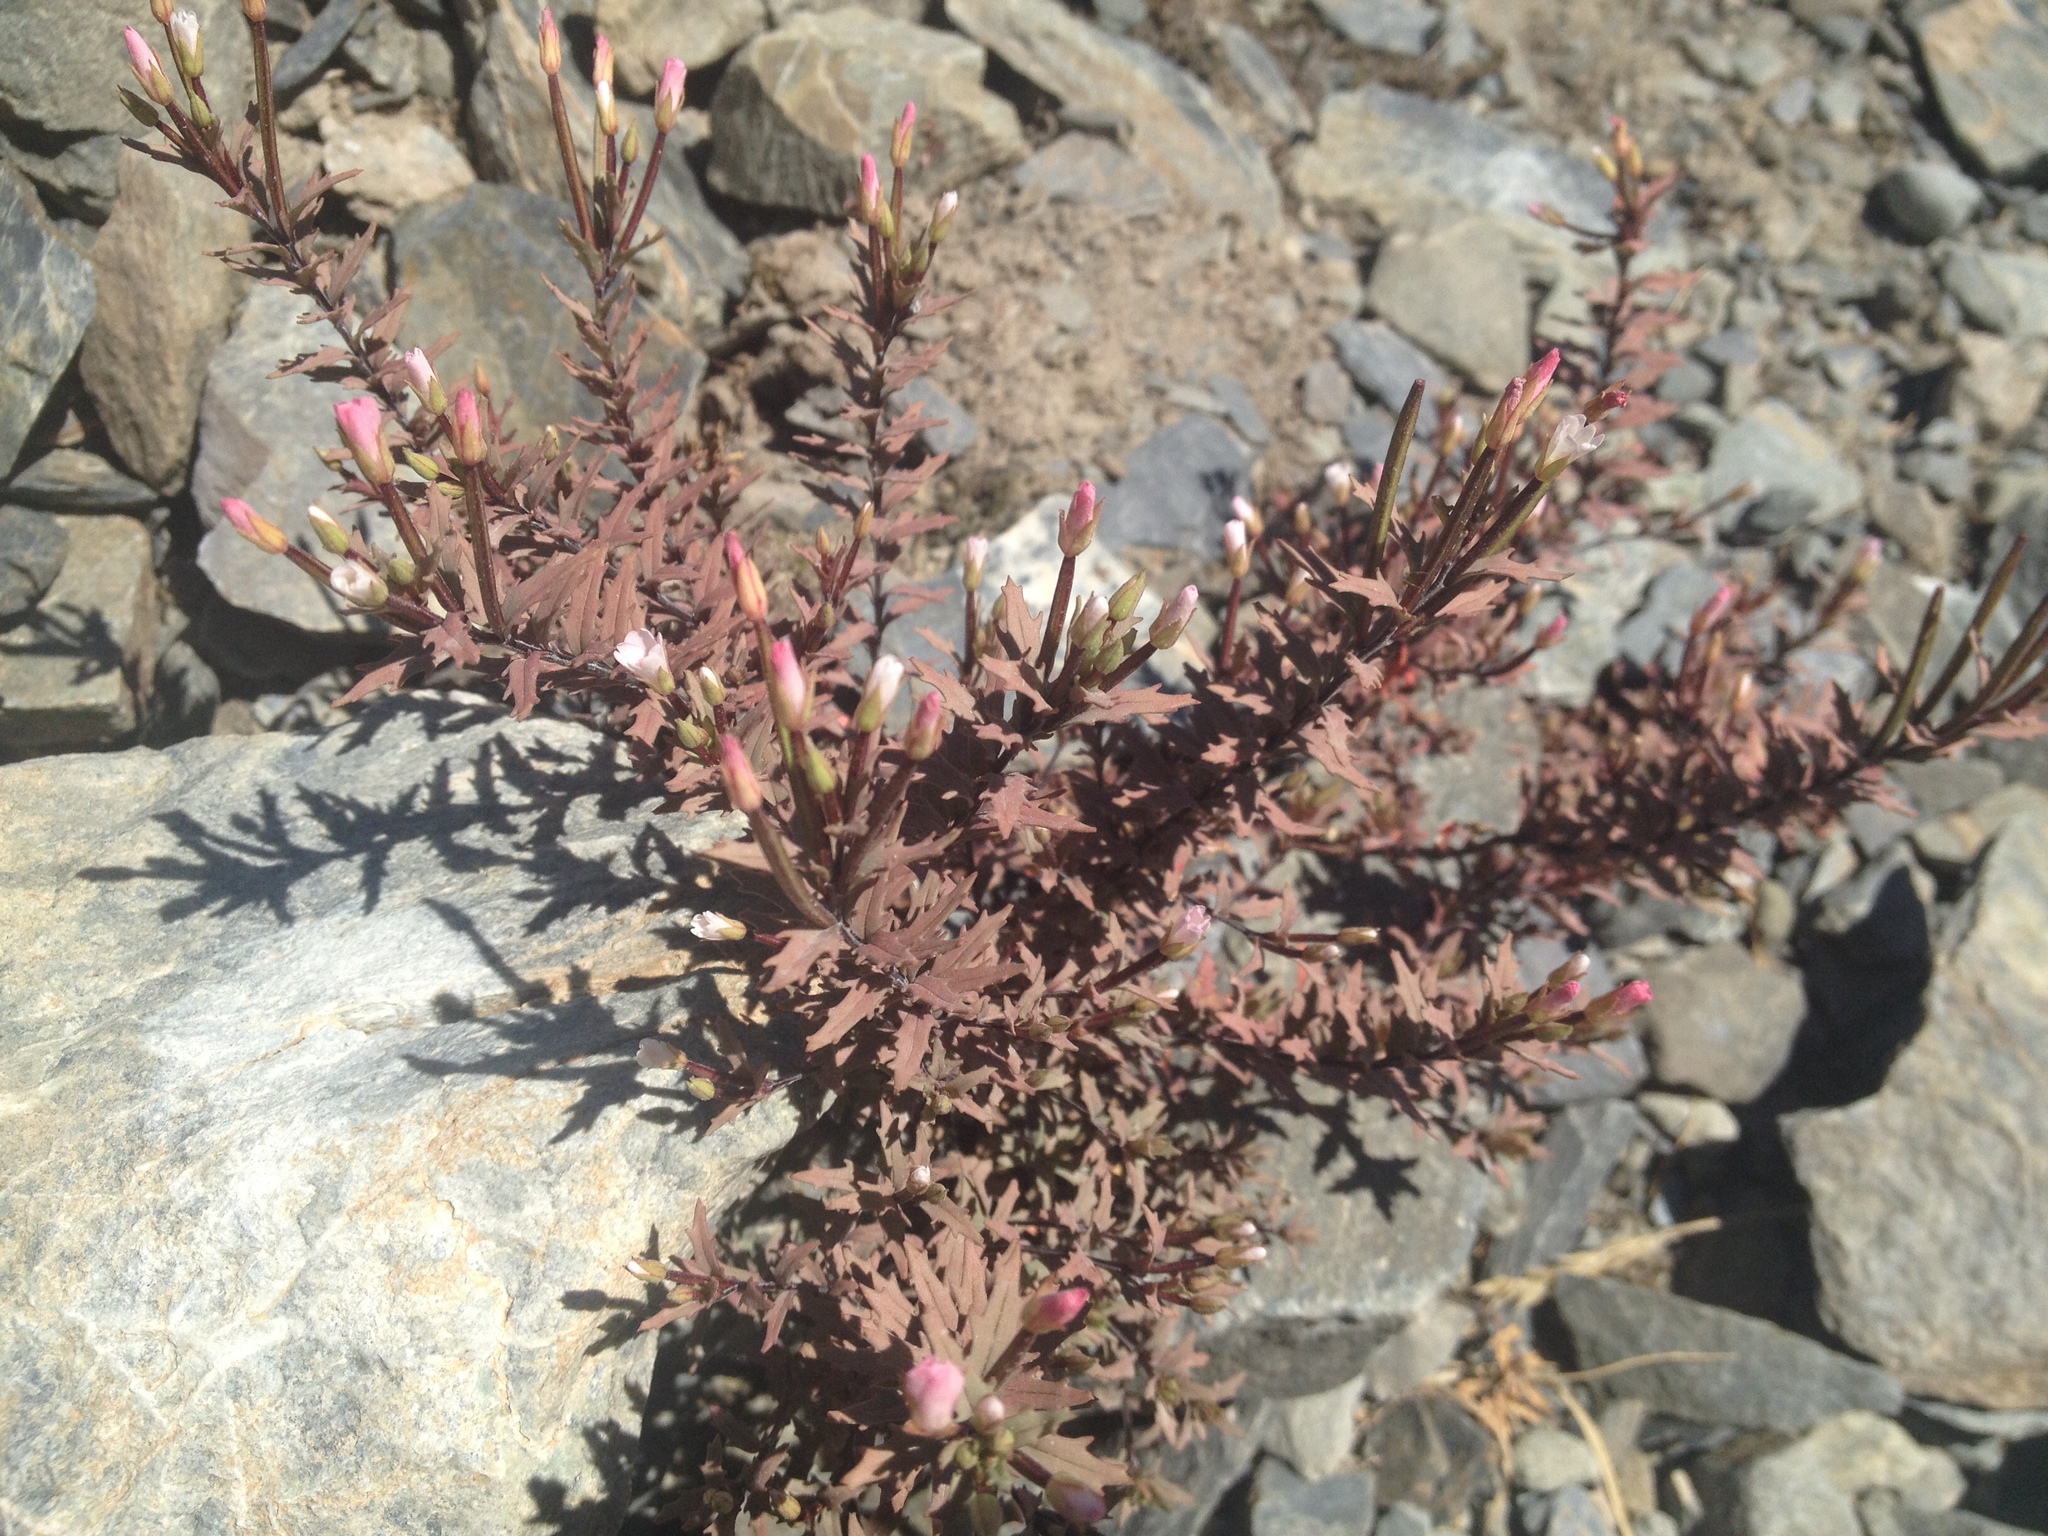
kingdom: Plantae
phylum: Tracheophyta
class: Magnoliopsida
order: Myrtales
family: Onagraceae
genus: Epilobium
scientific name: Epilobium melanocaulon
